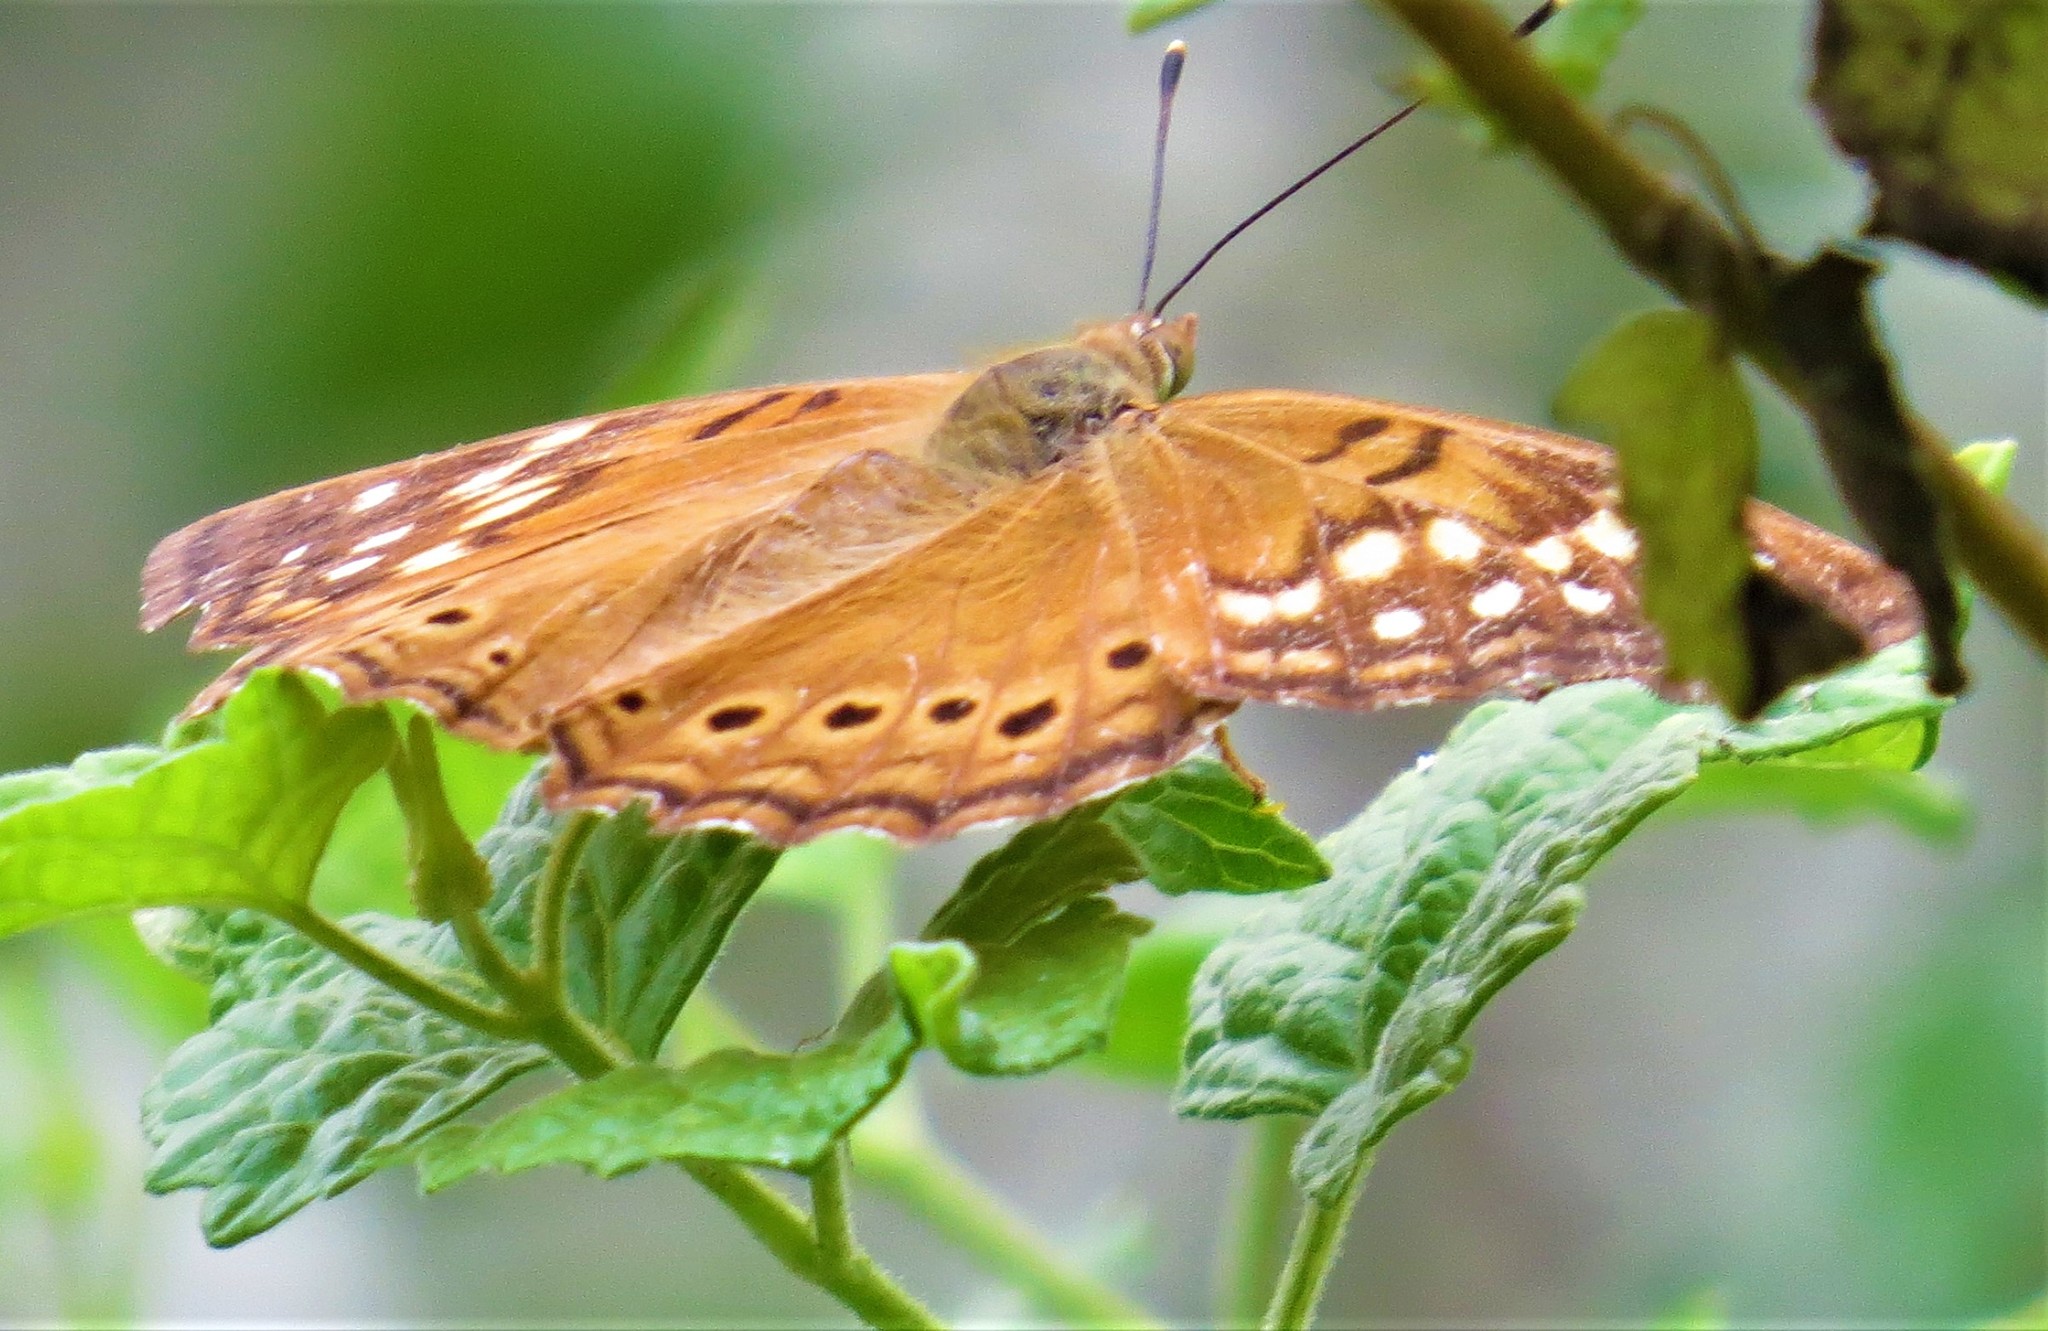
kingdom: Animalia
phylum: Arthropoda
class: Insecta
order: Lepidoptera
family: Nymphalidae
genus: Asterocampa
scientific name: Asterocampa clyton
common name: Tawny emperor
